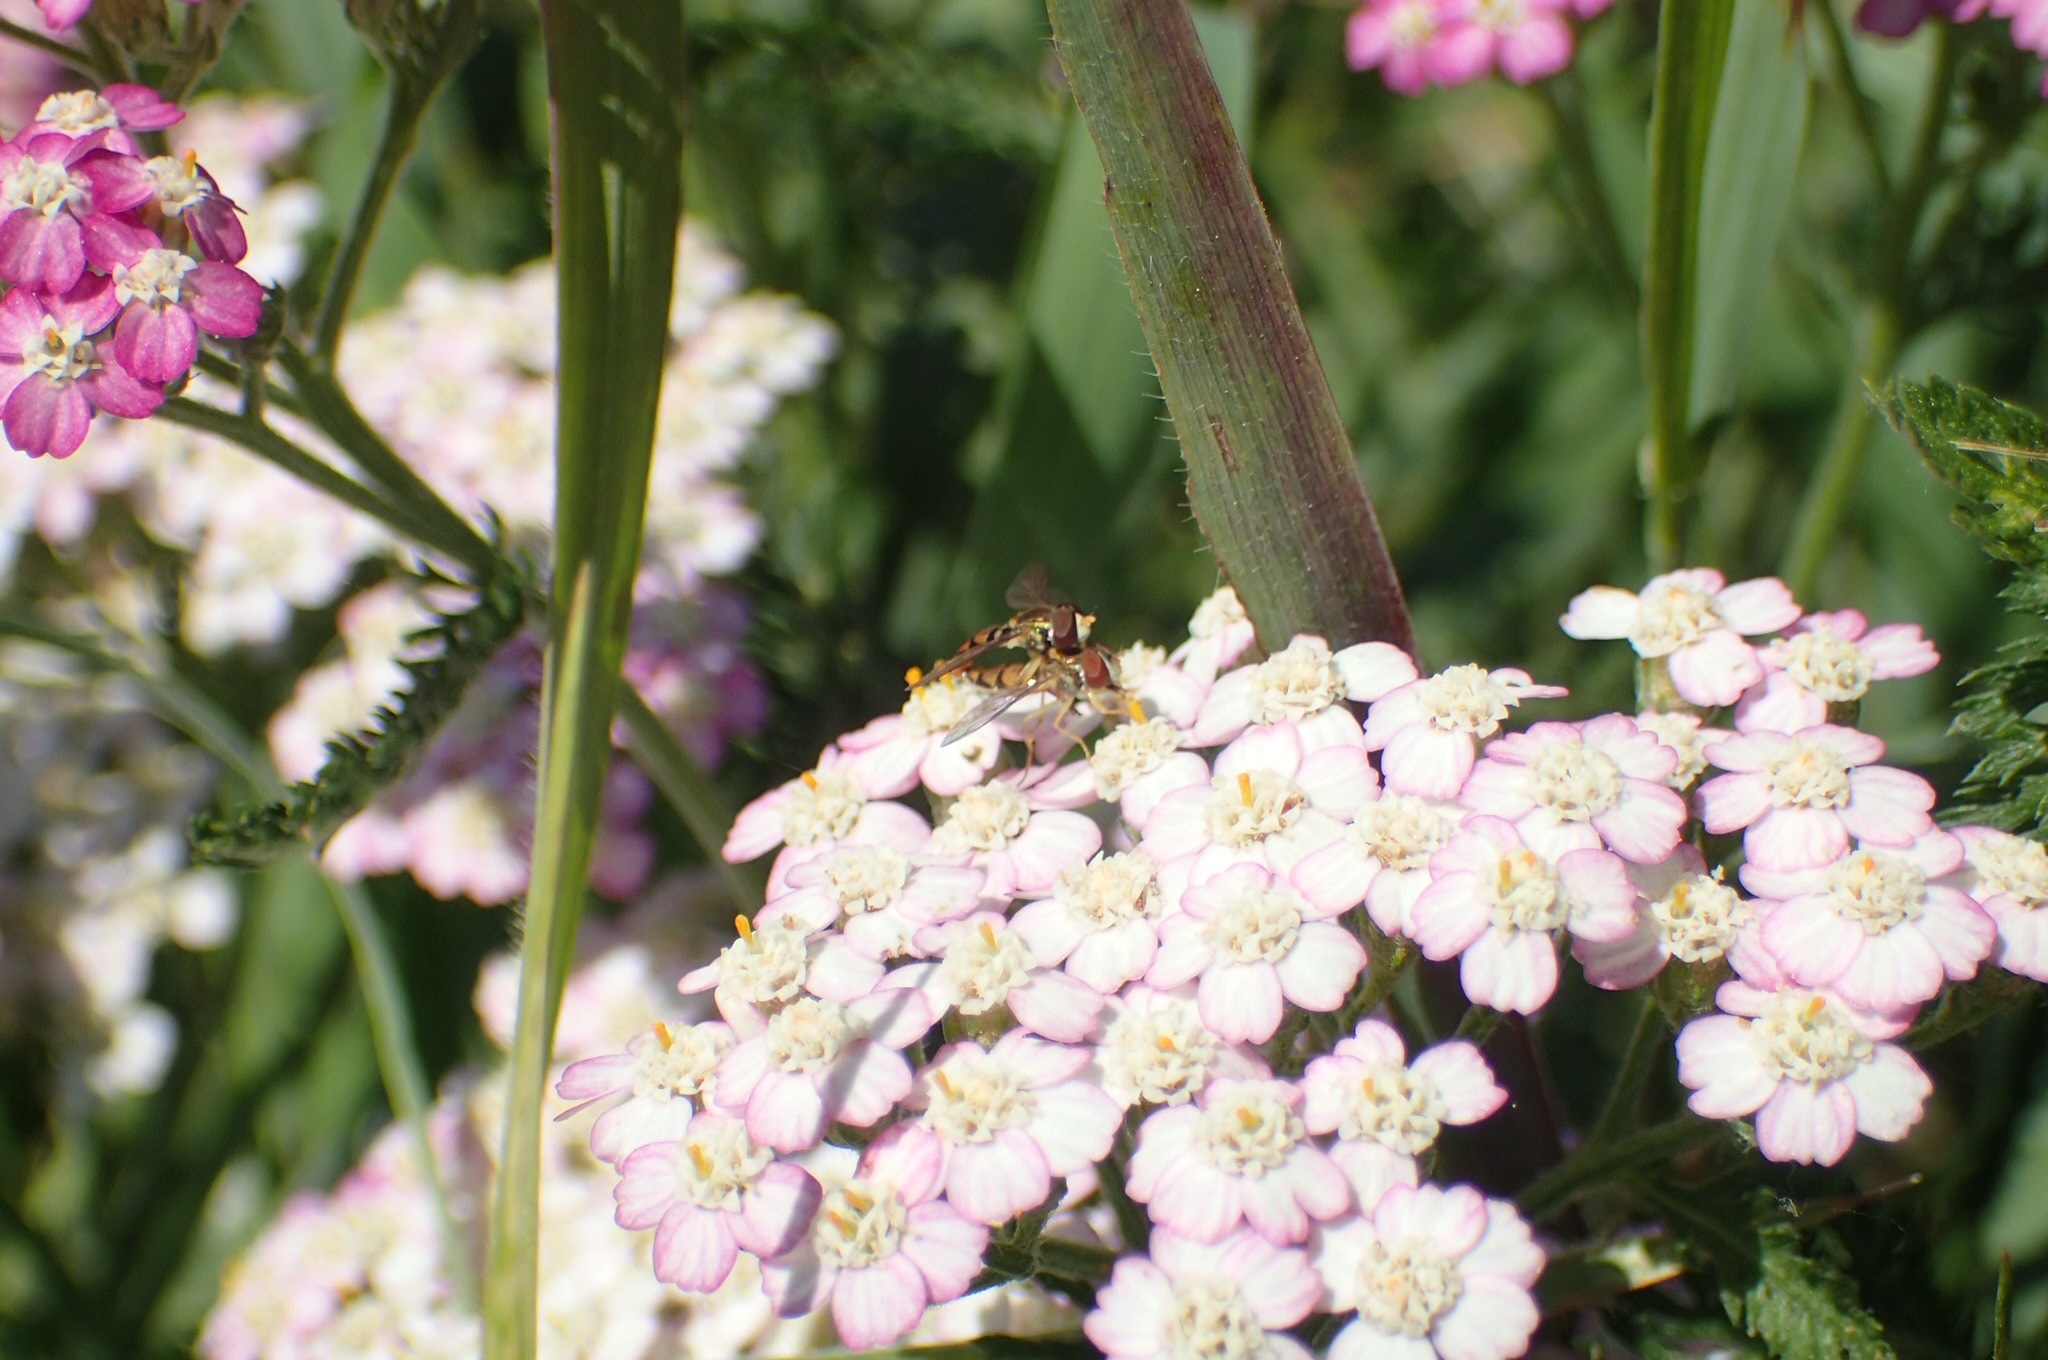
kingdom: Animalia
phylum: Arthropoda
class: Insecta
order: Diptera
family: Syrphidae
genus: Toxomerus
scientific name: Toxomerus marginatus
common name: Syrphid fly
